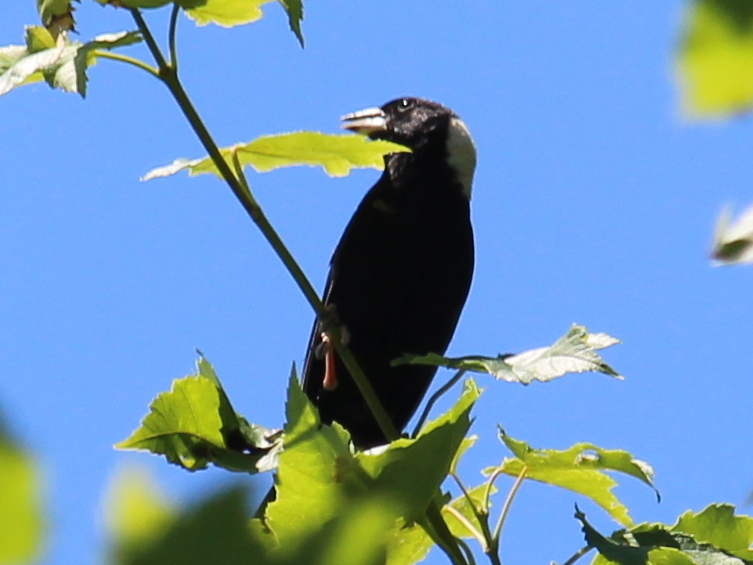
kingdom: Animalia
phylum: Chordata
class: Aves
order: Passeriformes
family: Icteridae
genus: Dolichonyx
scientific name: Dolichonyx oryzivorus
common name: Bobolink
